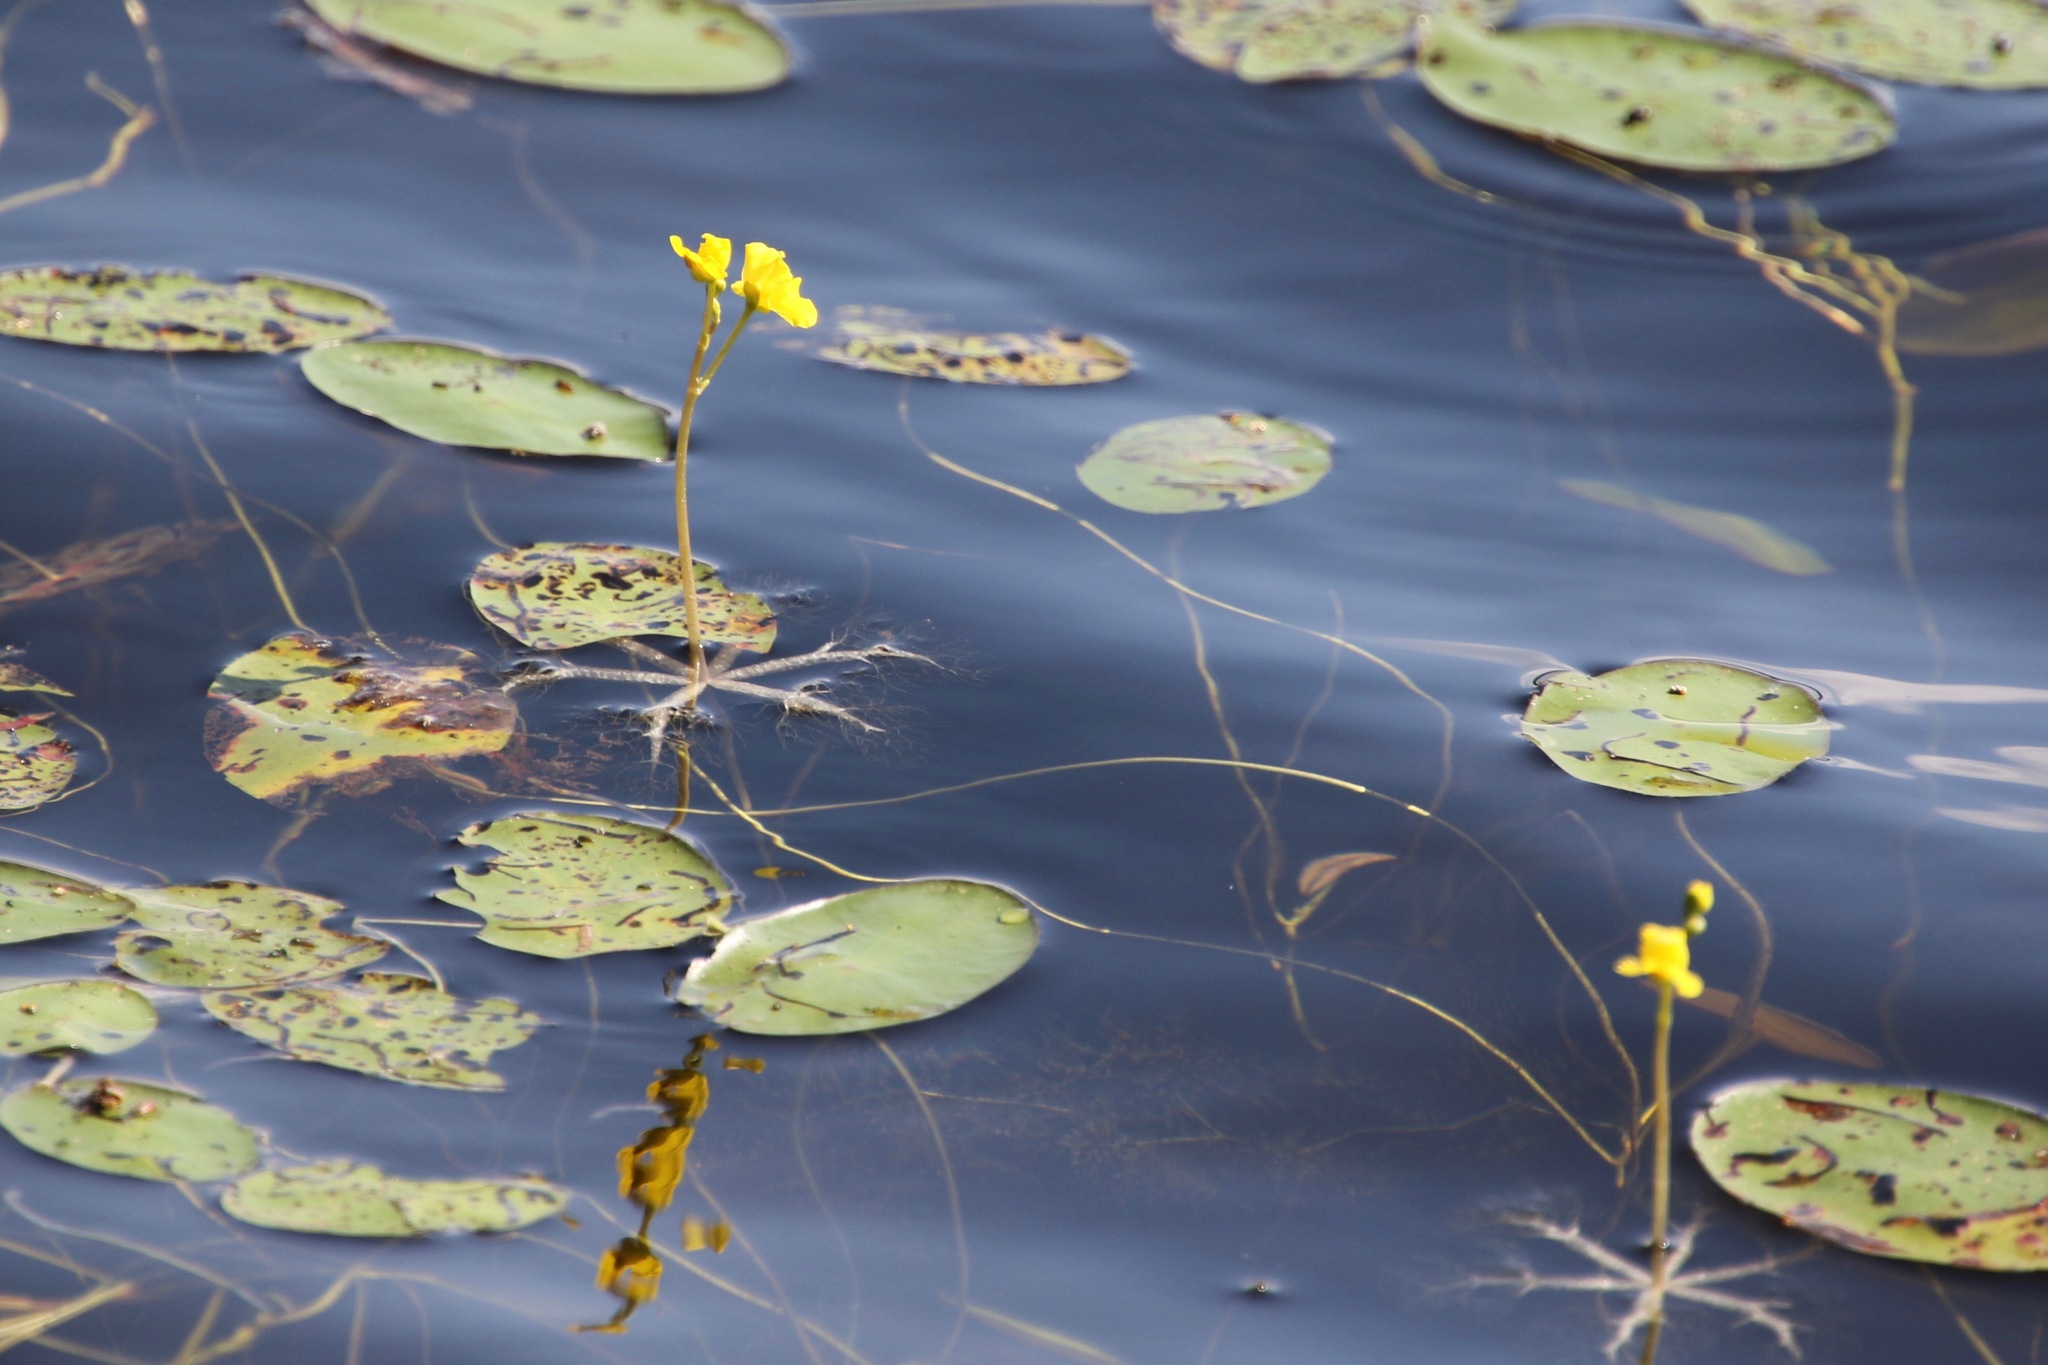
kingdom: Plantae
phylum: Tracheophyta
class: Magnoliopsida
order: Lamiales
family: Lentibulariaceae
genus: Utricularia
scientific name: Utricularia radiata
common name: Floating bladderwort
